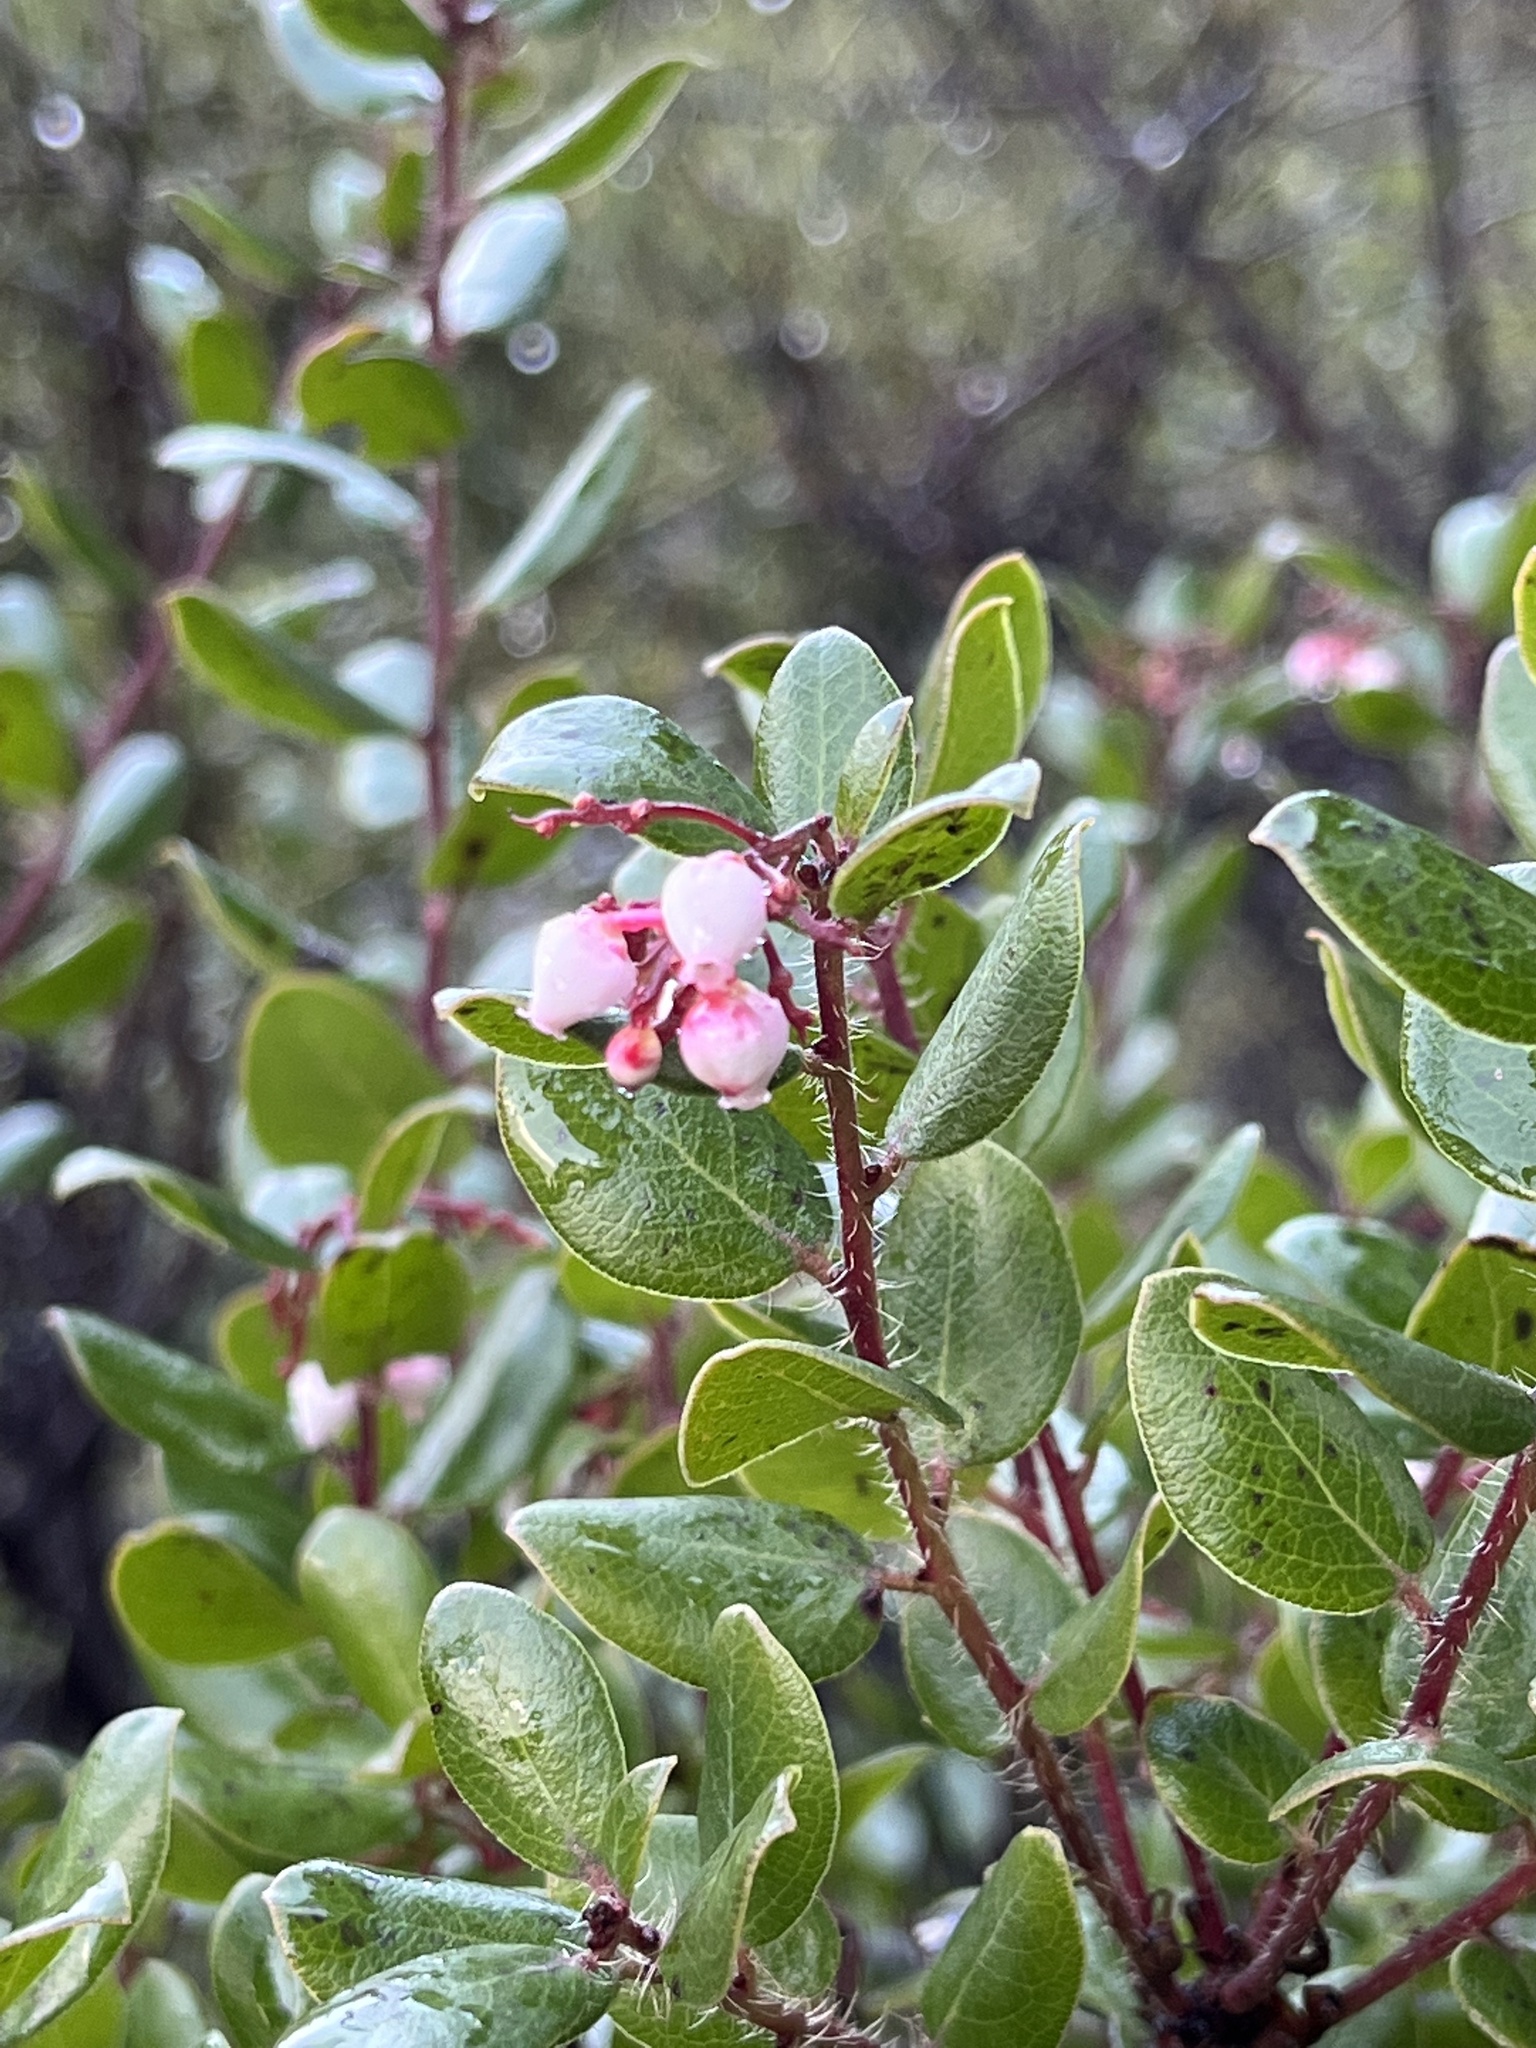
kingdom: Plantae
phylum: Tracheophyta
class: Magnoliopsida
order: Ericales
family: Ericaceae
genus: Arctostaphylos
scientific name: Arctostaphylos nummularia
